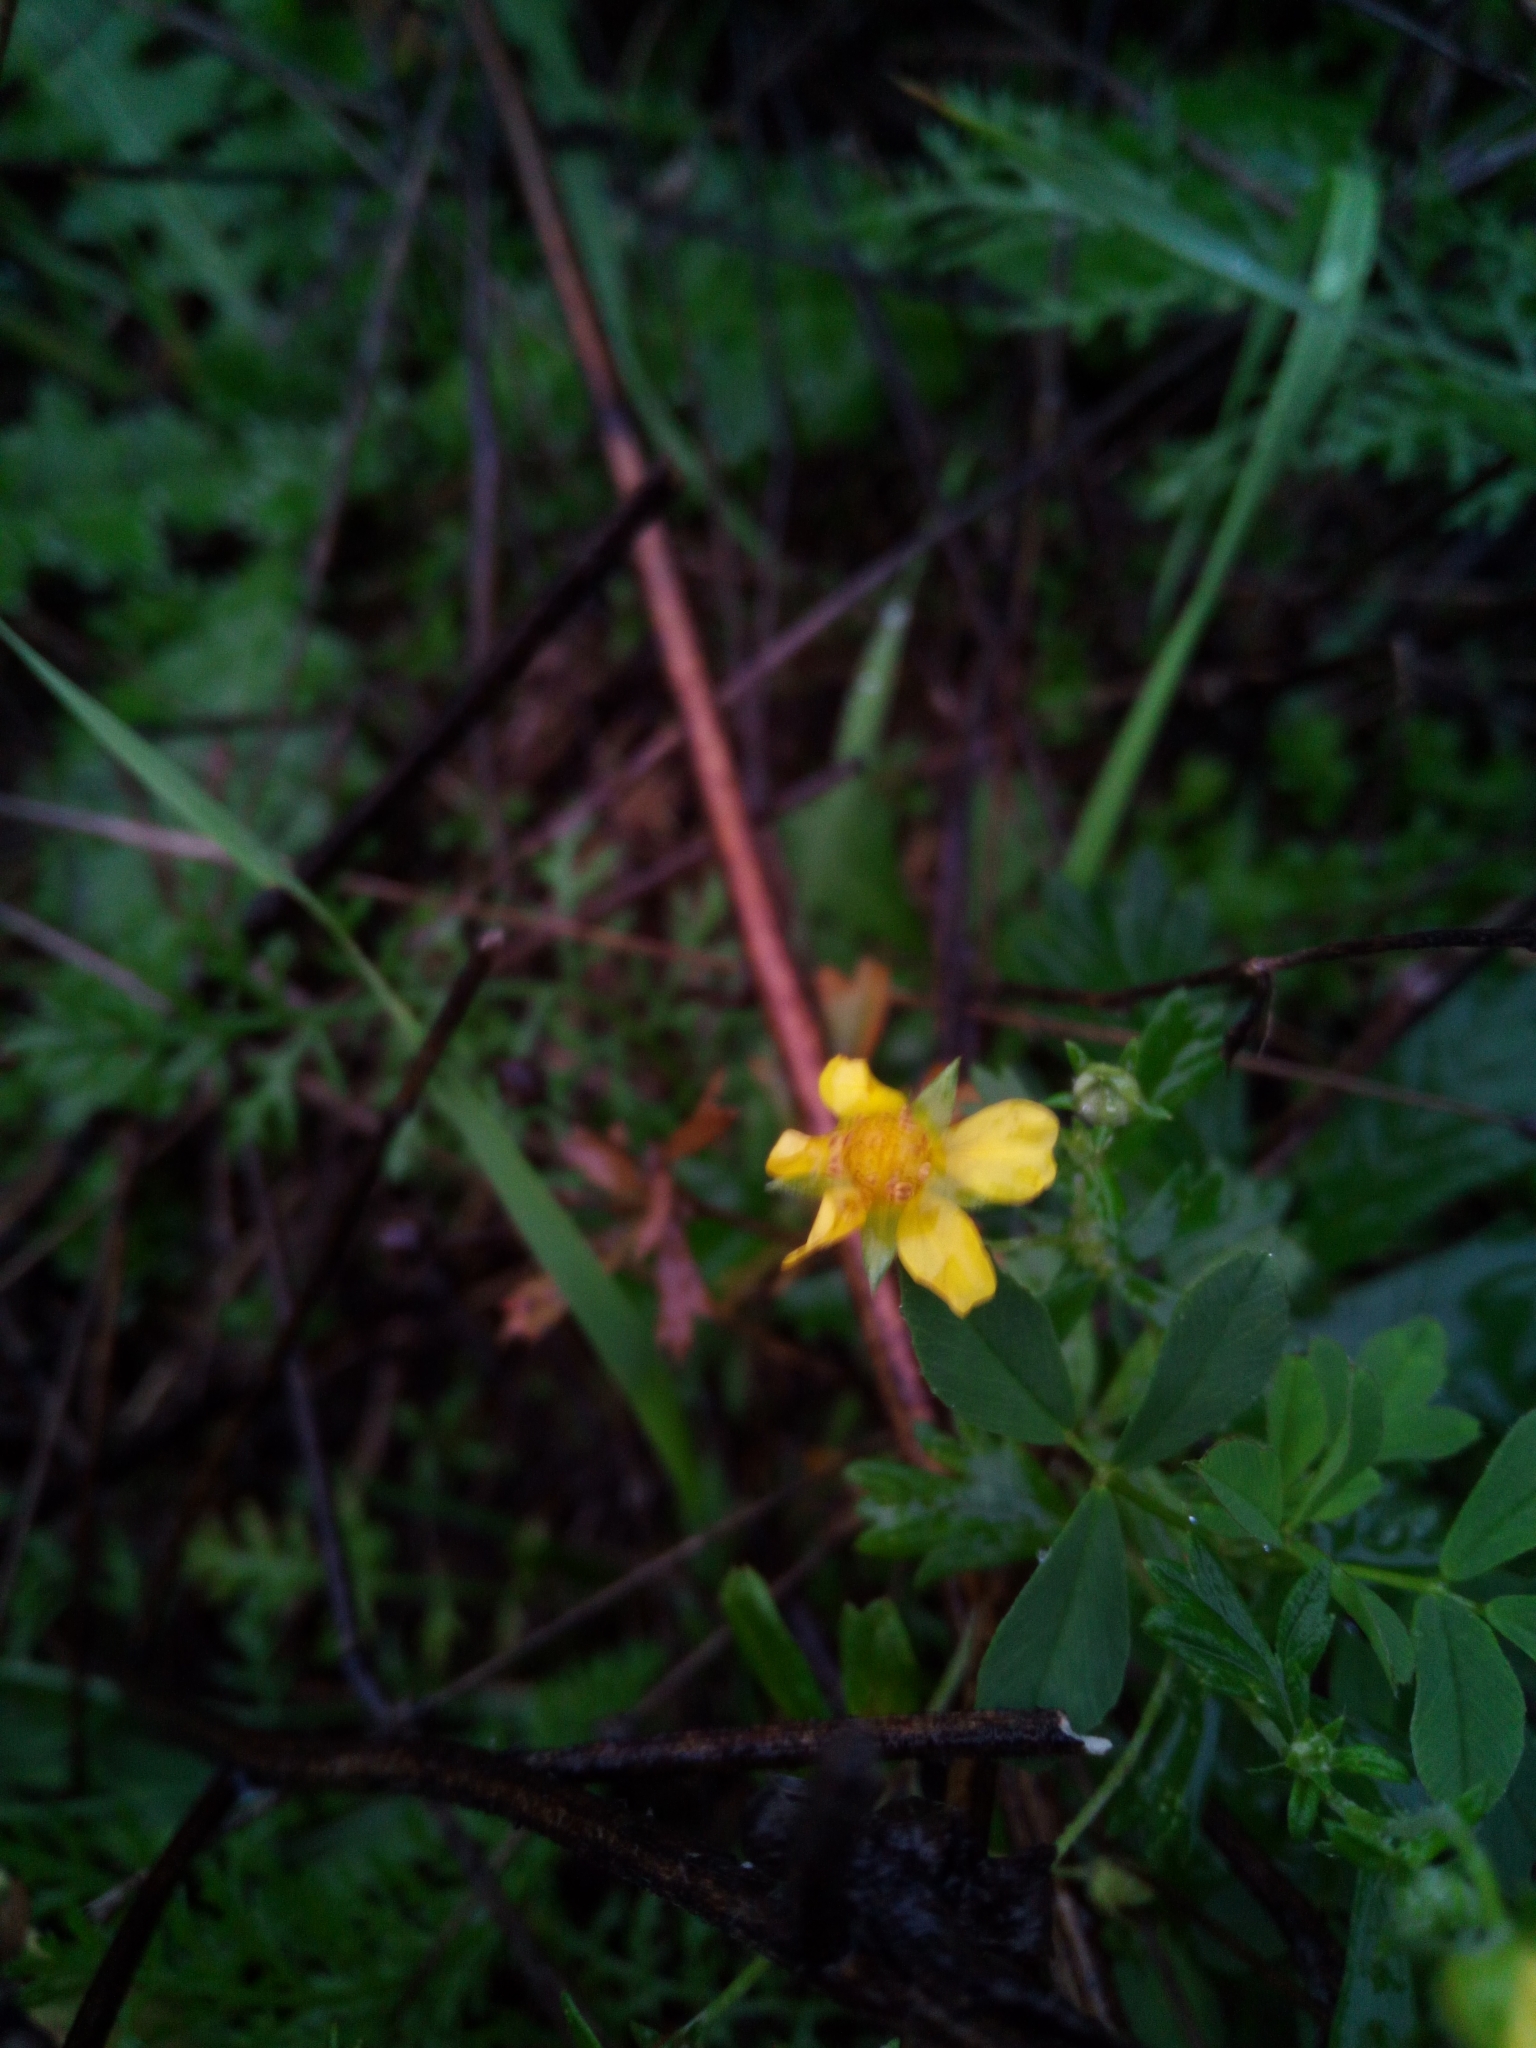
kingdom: Plantae
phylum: Tracheophyta
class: Magnoliopsida
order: Rosales
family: Rosaceae
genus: Potentilla
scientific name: Potentilla erecta
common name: Tormentil
